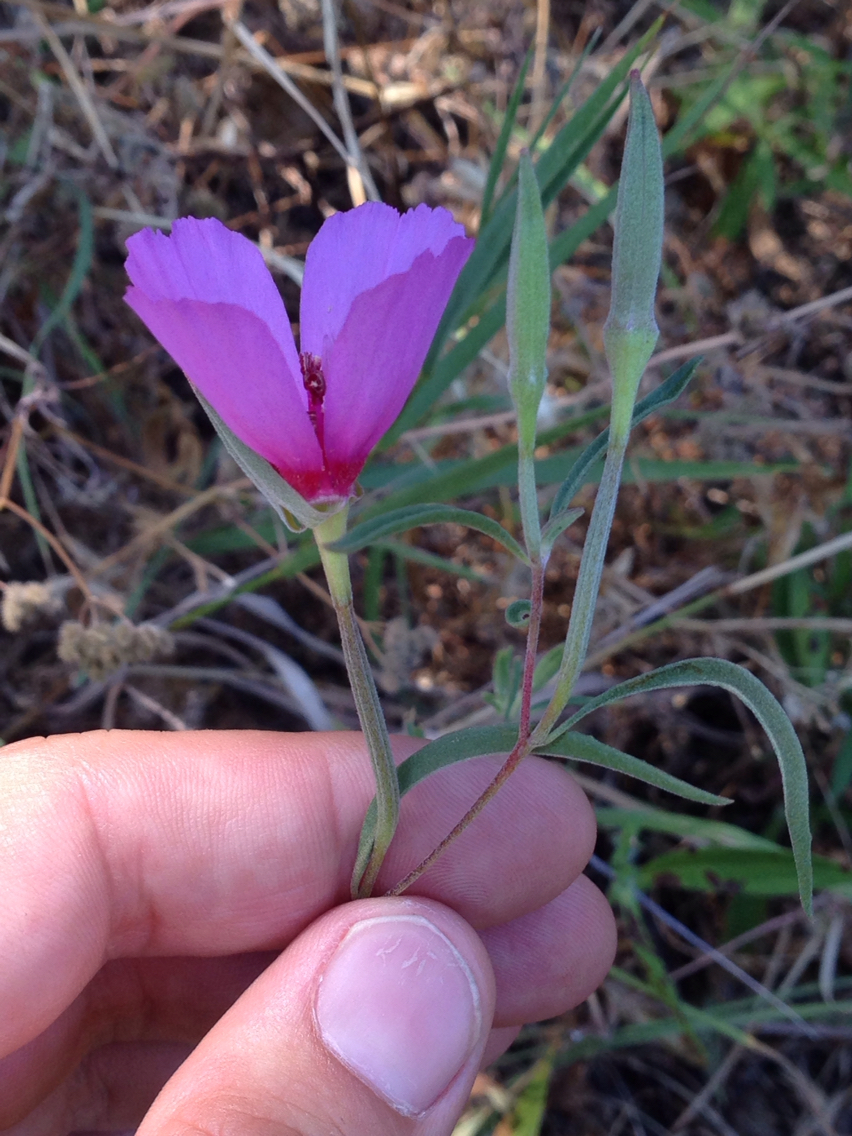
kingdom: Plantae
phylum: Tracheophyta
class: Magnoliopsida
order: Myrtales
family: Onagraceae
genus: Clarkia
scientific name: Clarkia rubicunda
